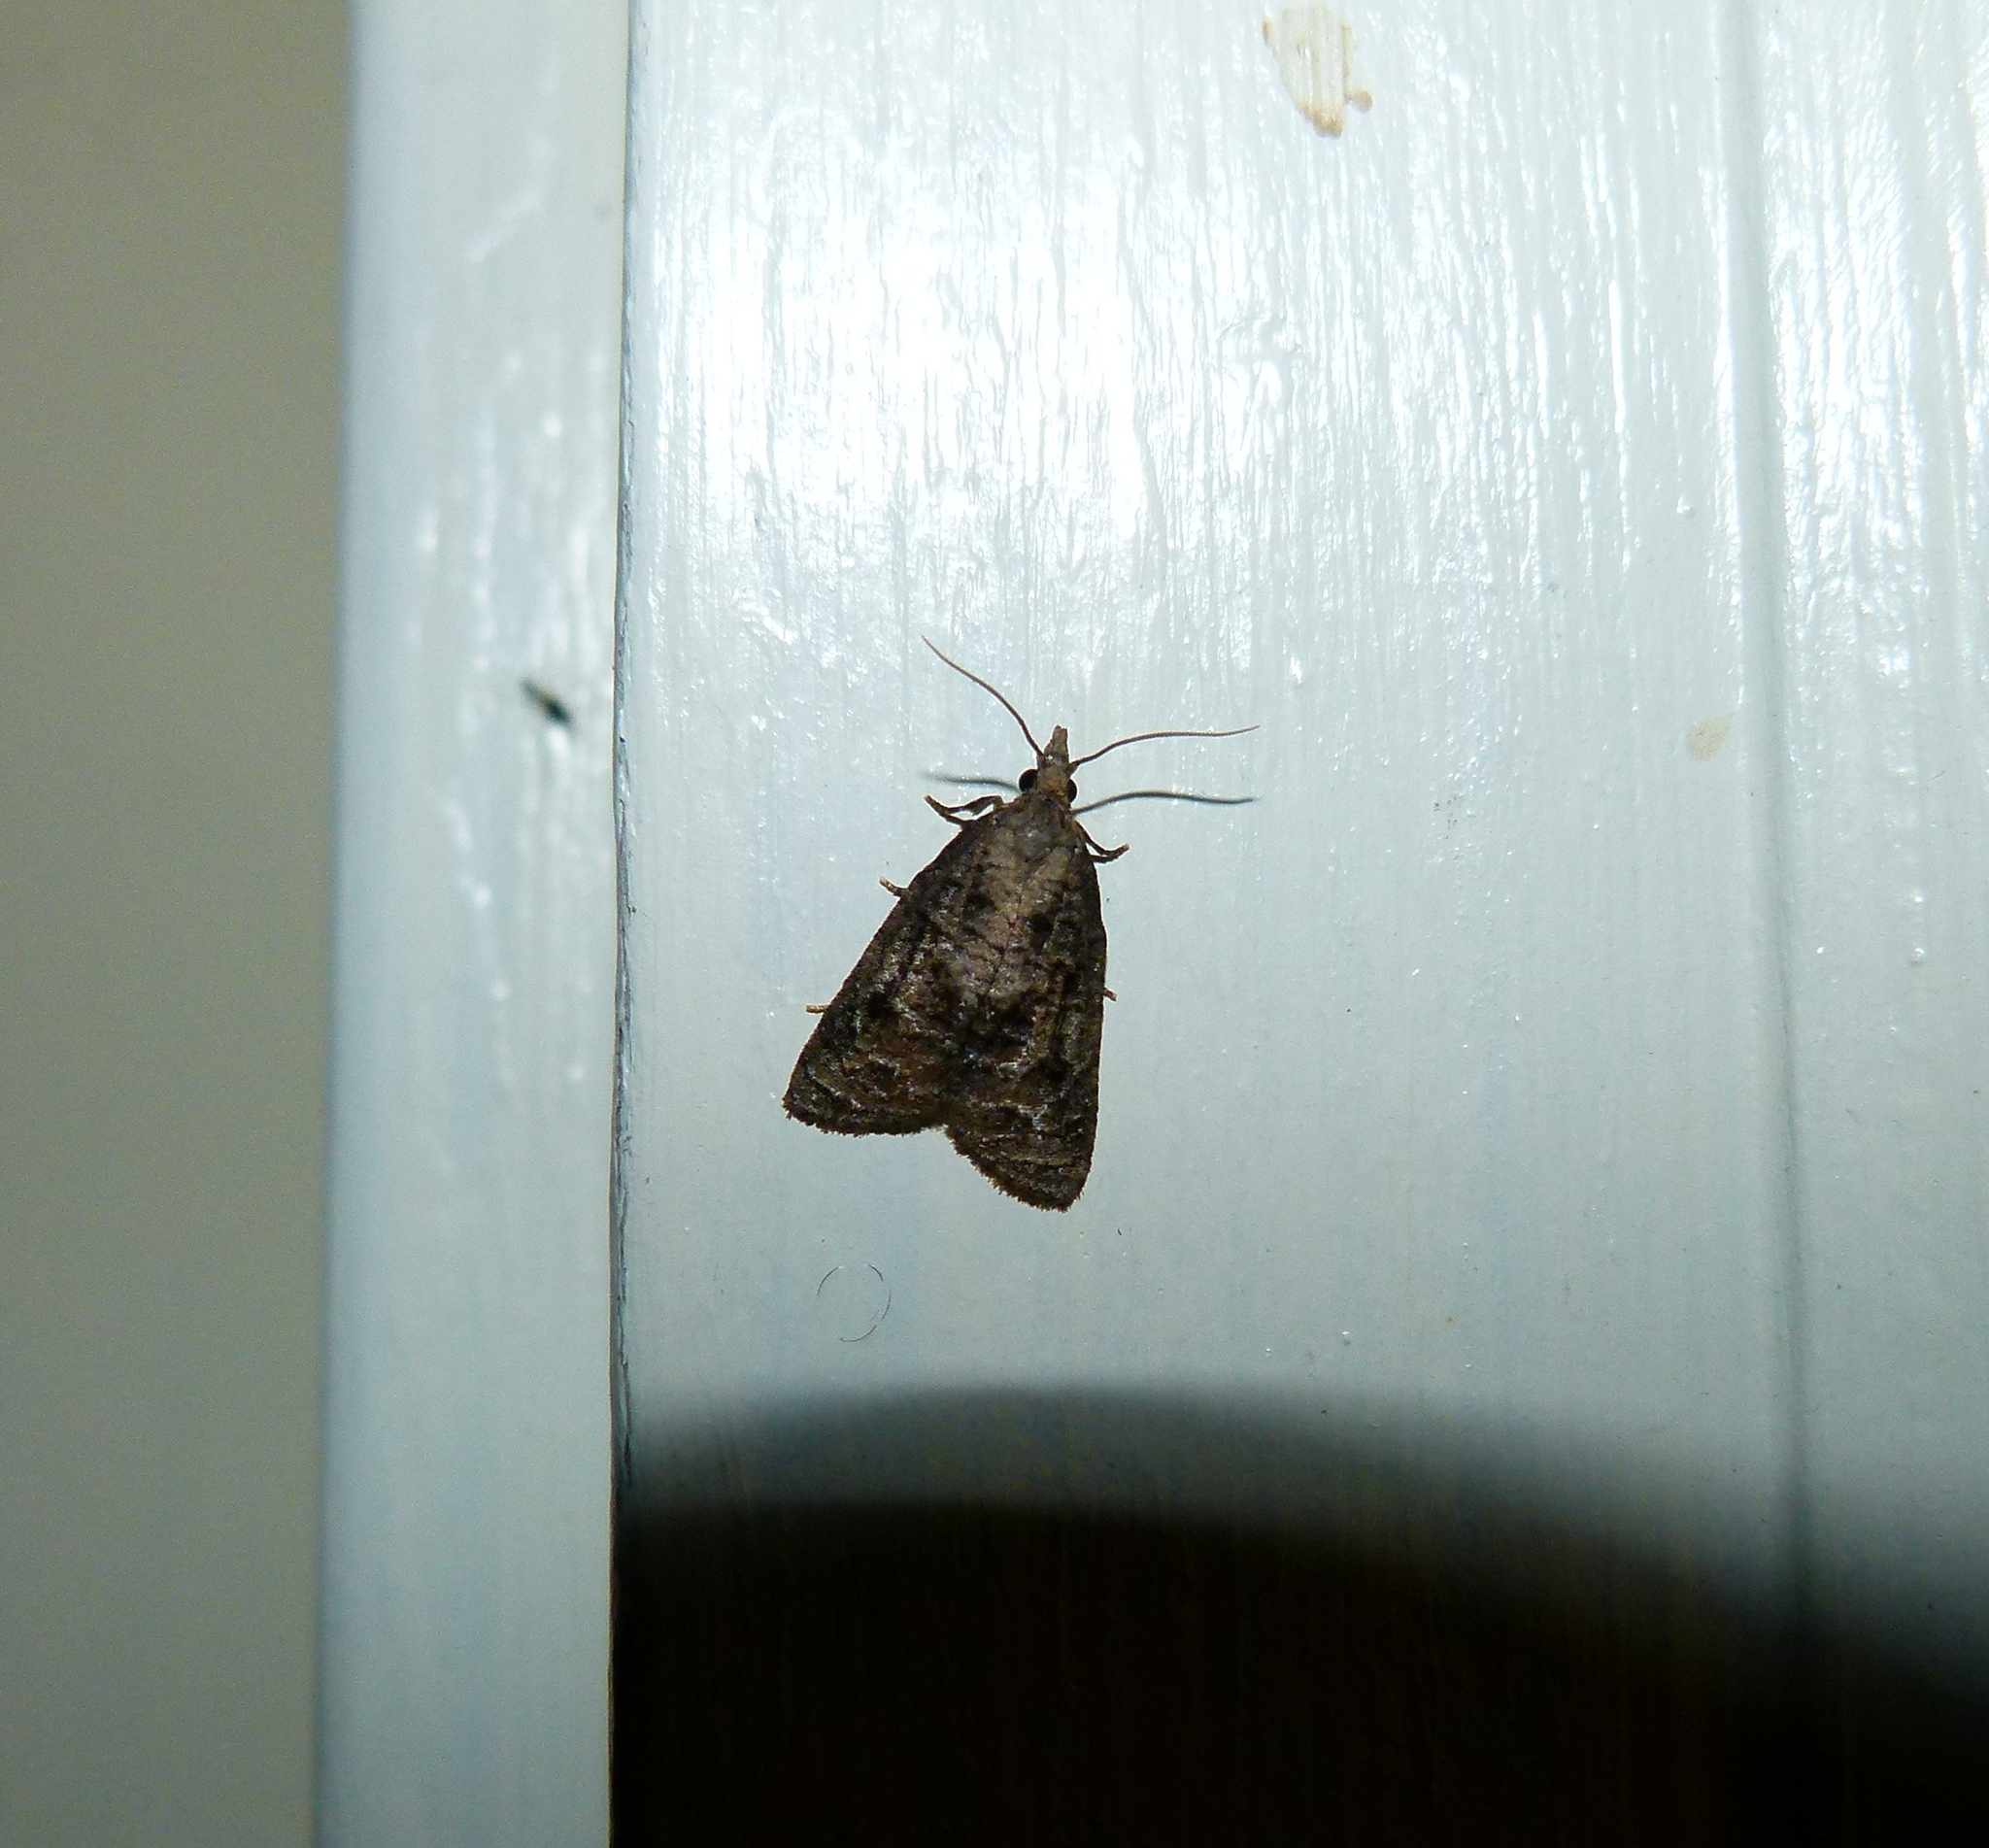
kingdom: Animalia
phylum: Arthropoda
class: Insecta
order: Lepidoptera
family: Tortricidae
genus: Platynota
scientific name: Platynota idaeusalis
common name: Tufted apple bud moth
